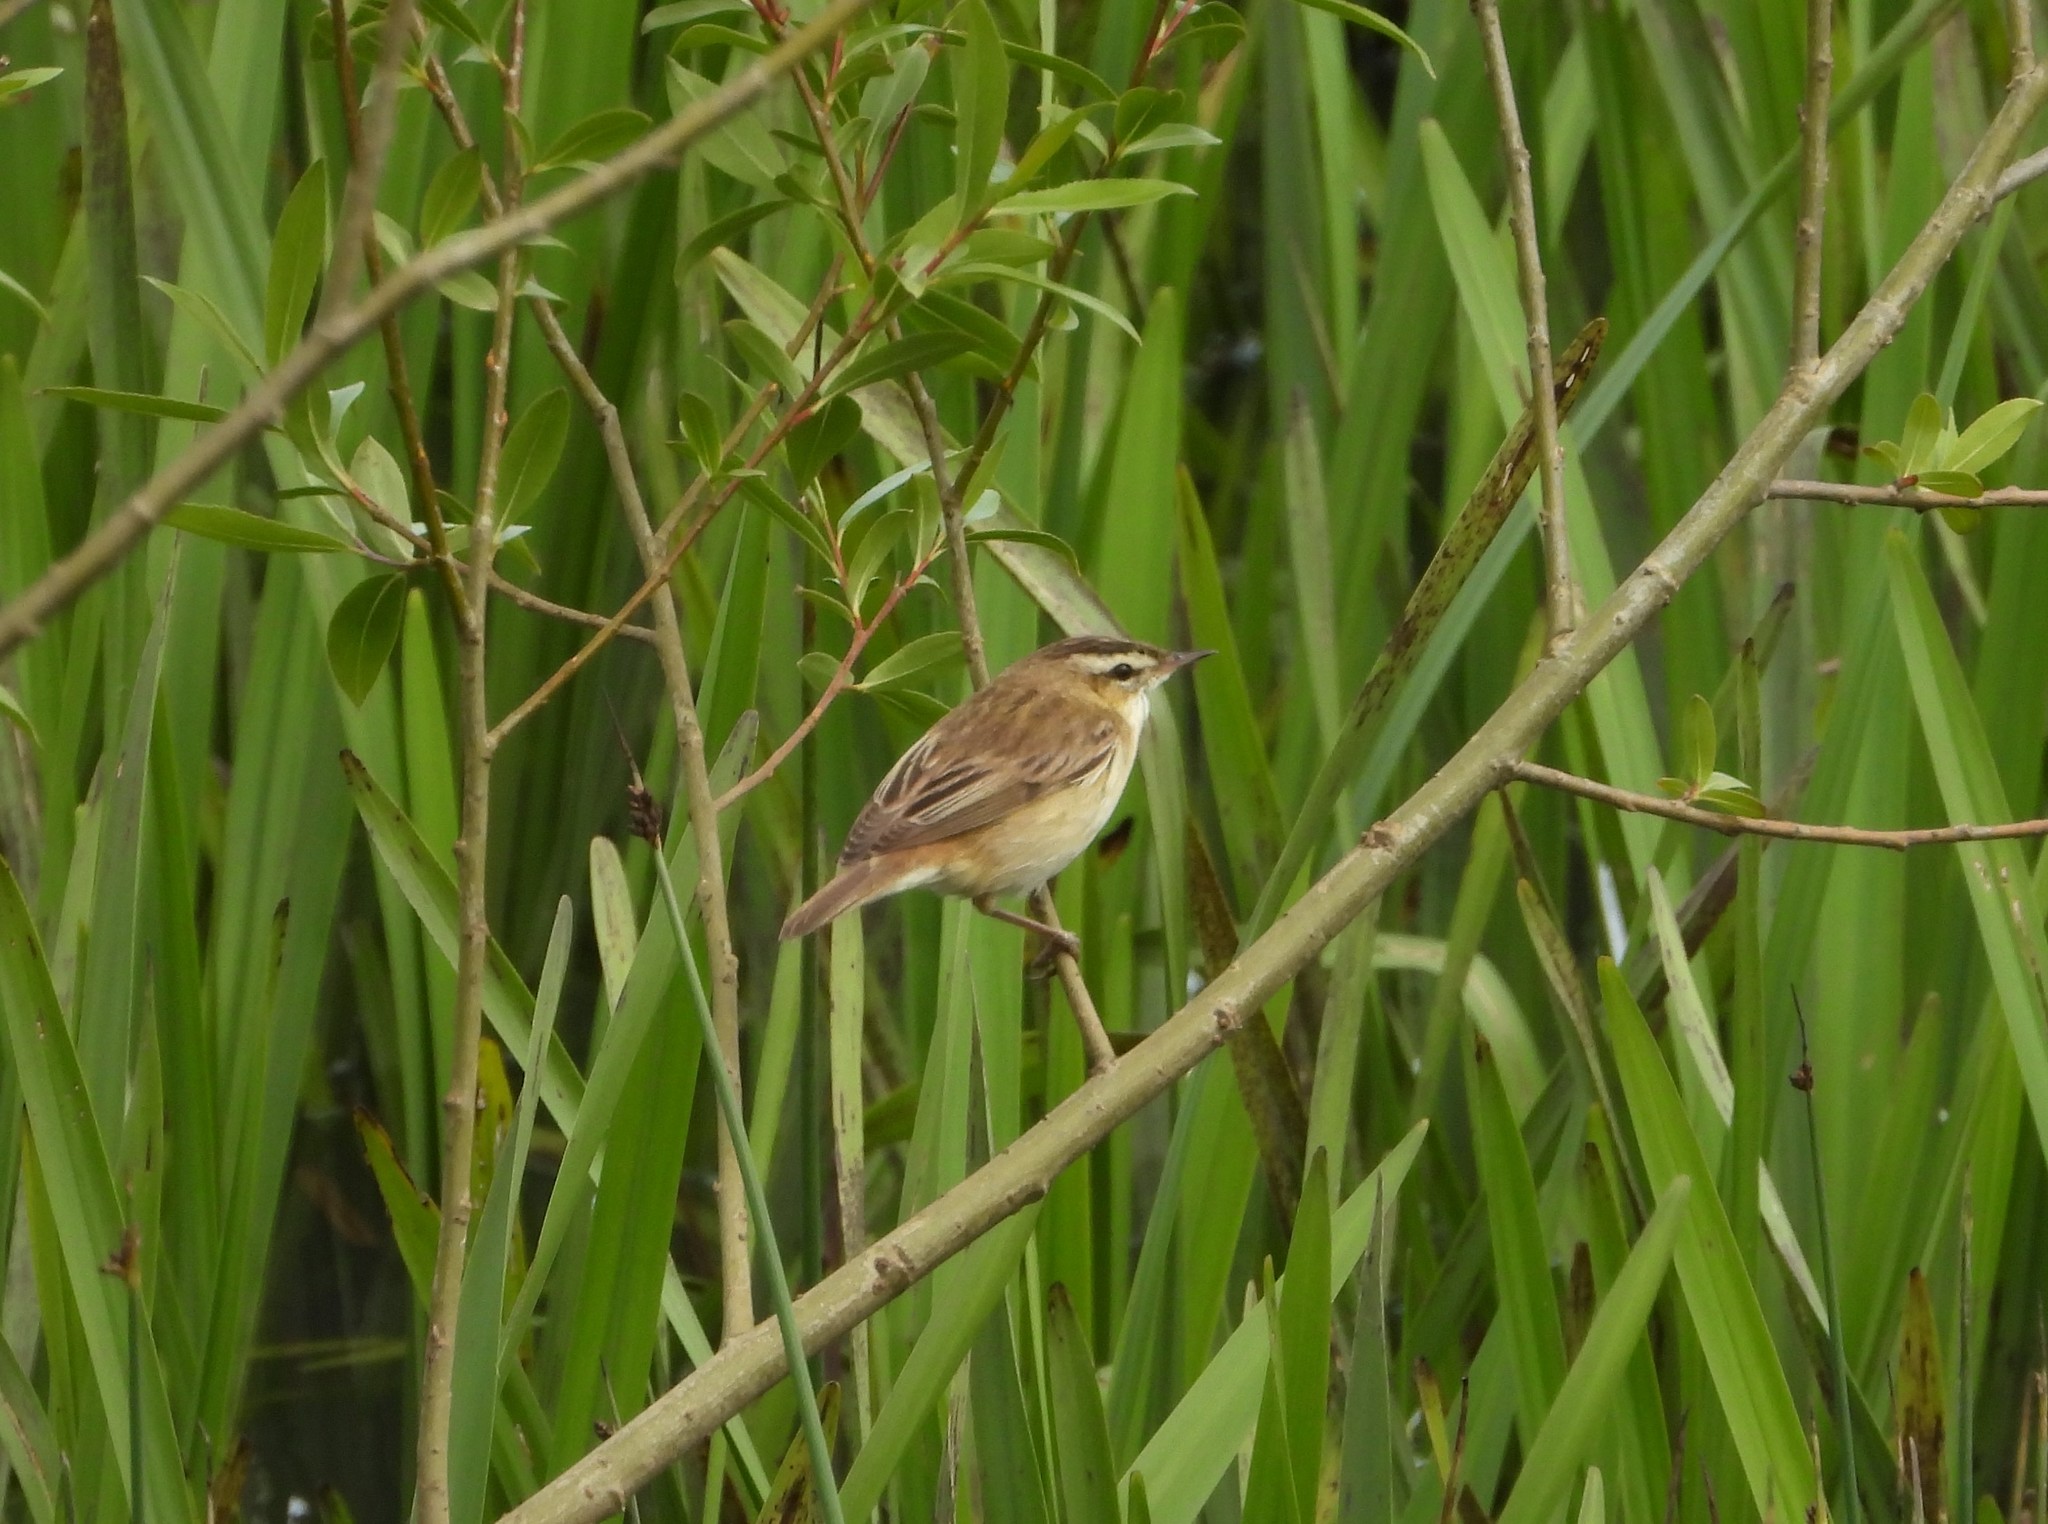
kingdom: Animalia
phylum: Chordata
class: Aves
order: Passeriformes
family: Acrocephalidae
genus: Acrocephalus
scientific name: Acrocephalus schoenobaenus
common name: Sedge warbler
